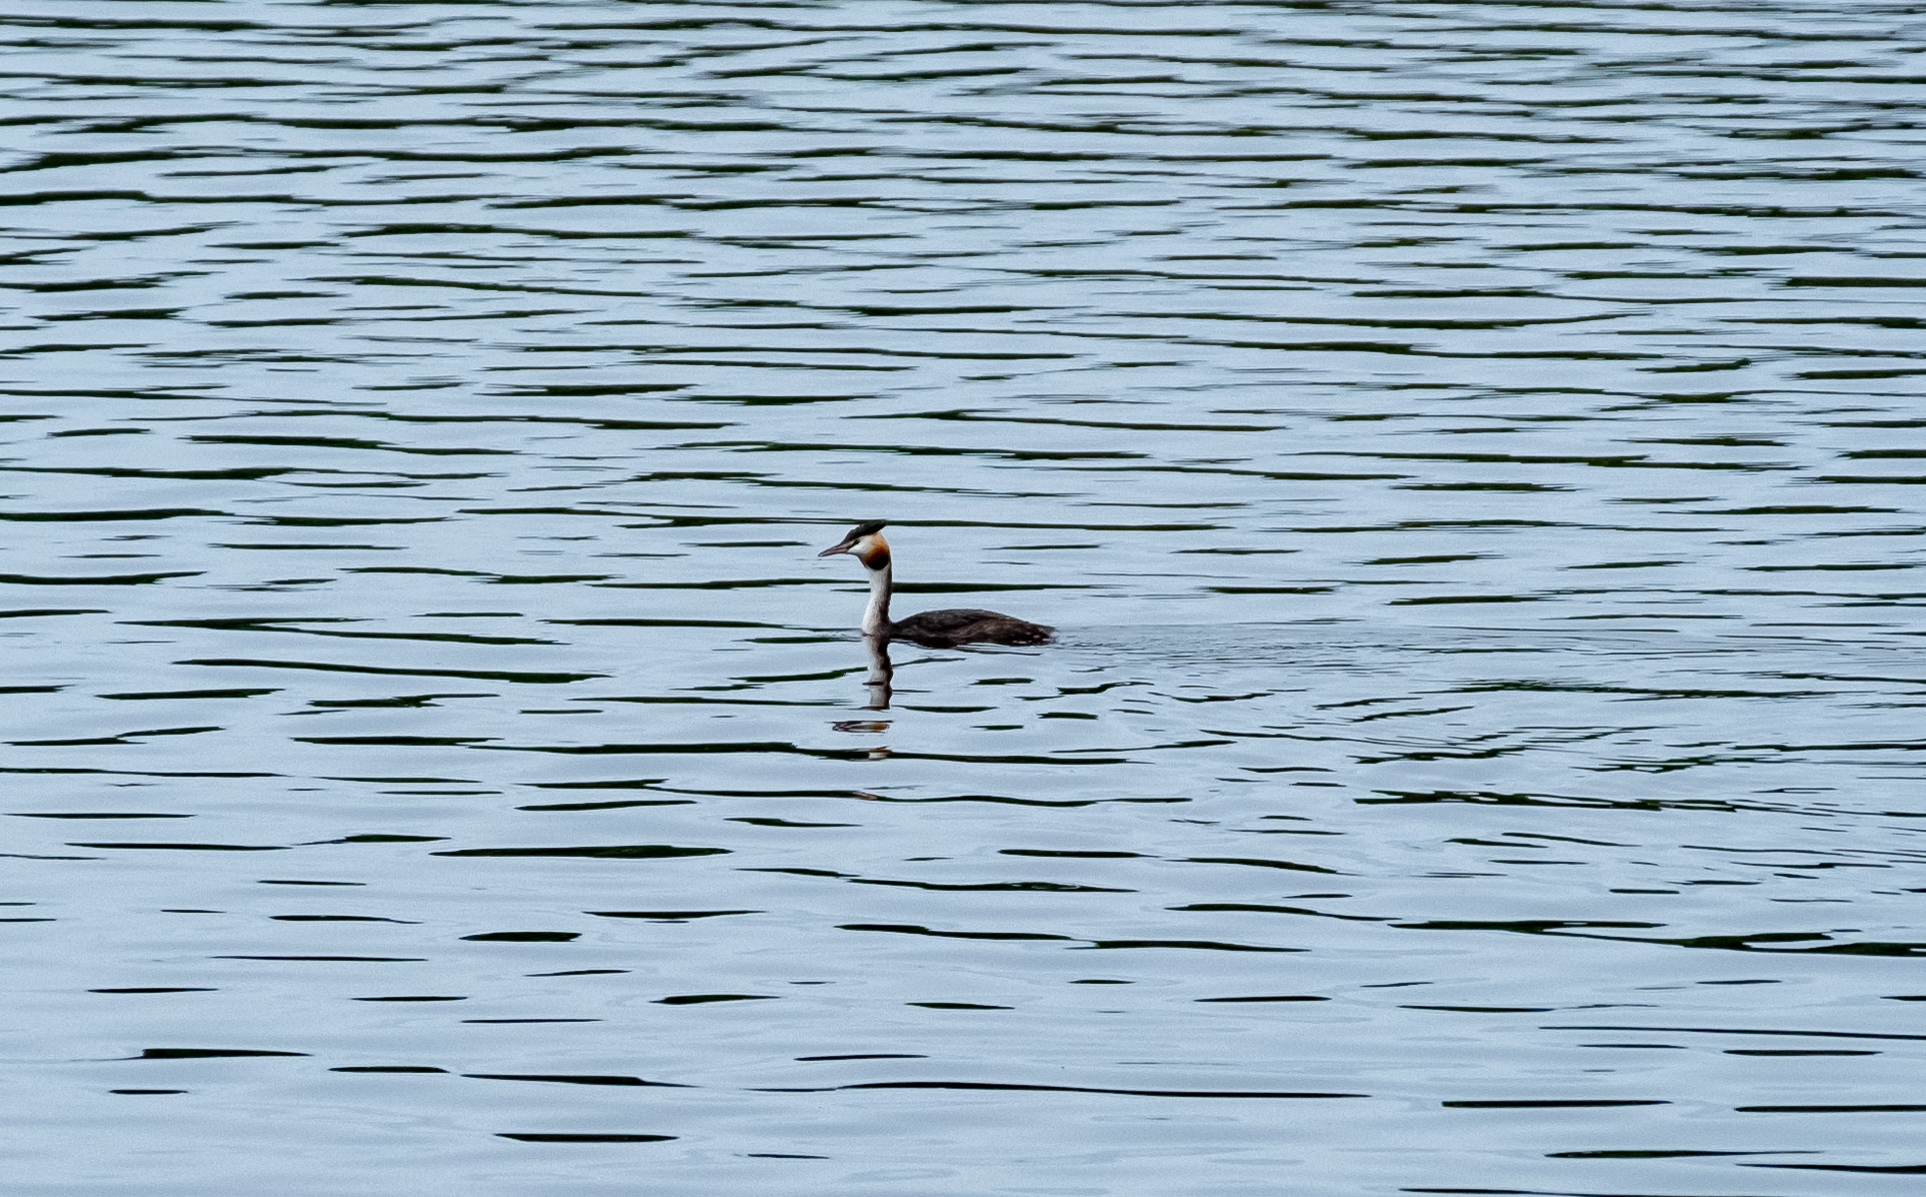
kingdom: Animalia
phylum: Chordata
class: Aves
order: Podicipediformes
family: Podicipedidae
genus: Podiceps
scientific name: Podiceps cristatus
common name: Great crested grebe
